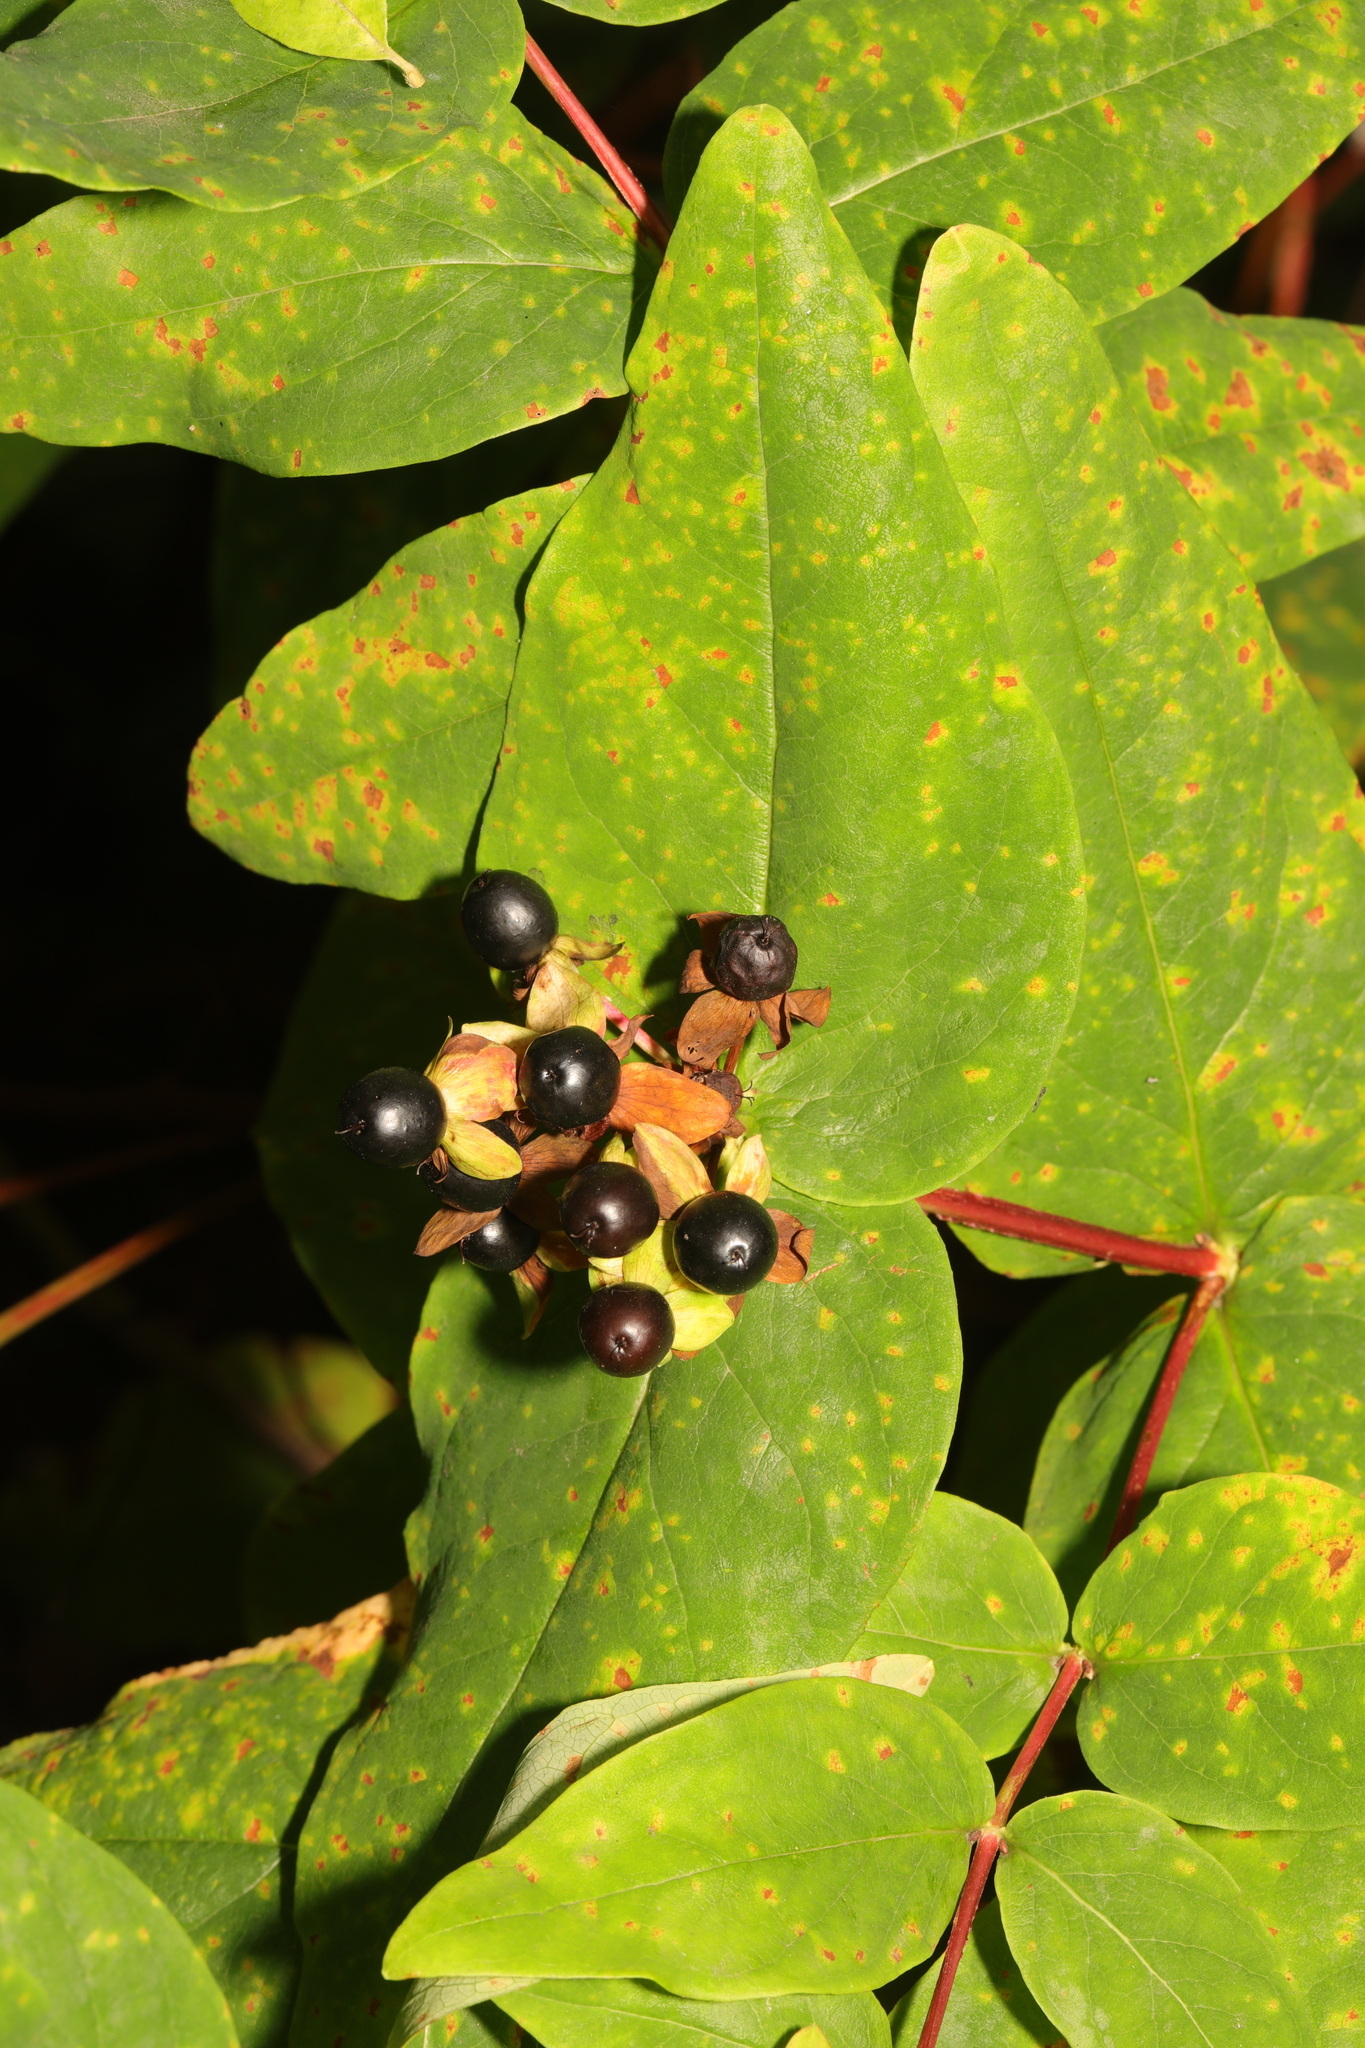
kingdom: Plantae
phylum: Tracheophyta
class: Magnoliopsida
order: Malpighiales
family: Hypericaceae
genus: Hypericum
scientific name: Hypericum androsaemum
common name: Sweet-amber
